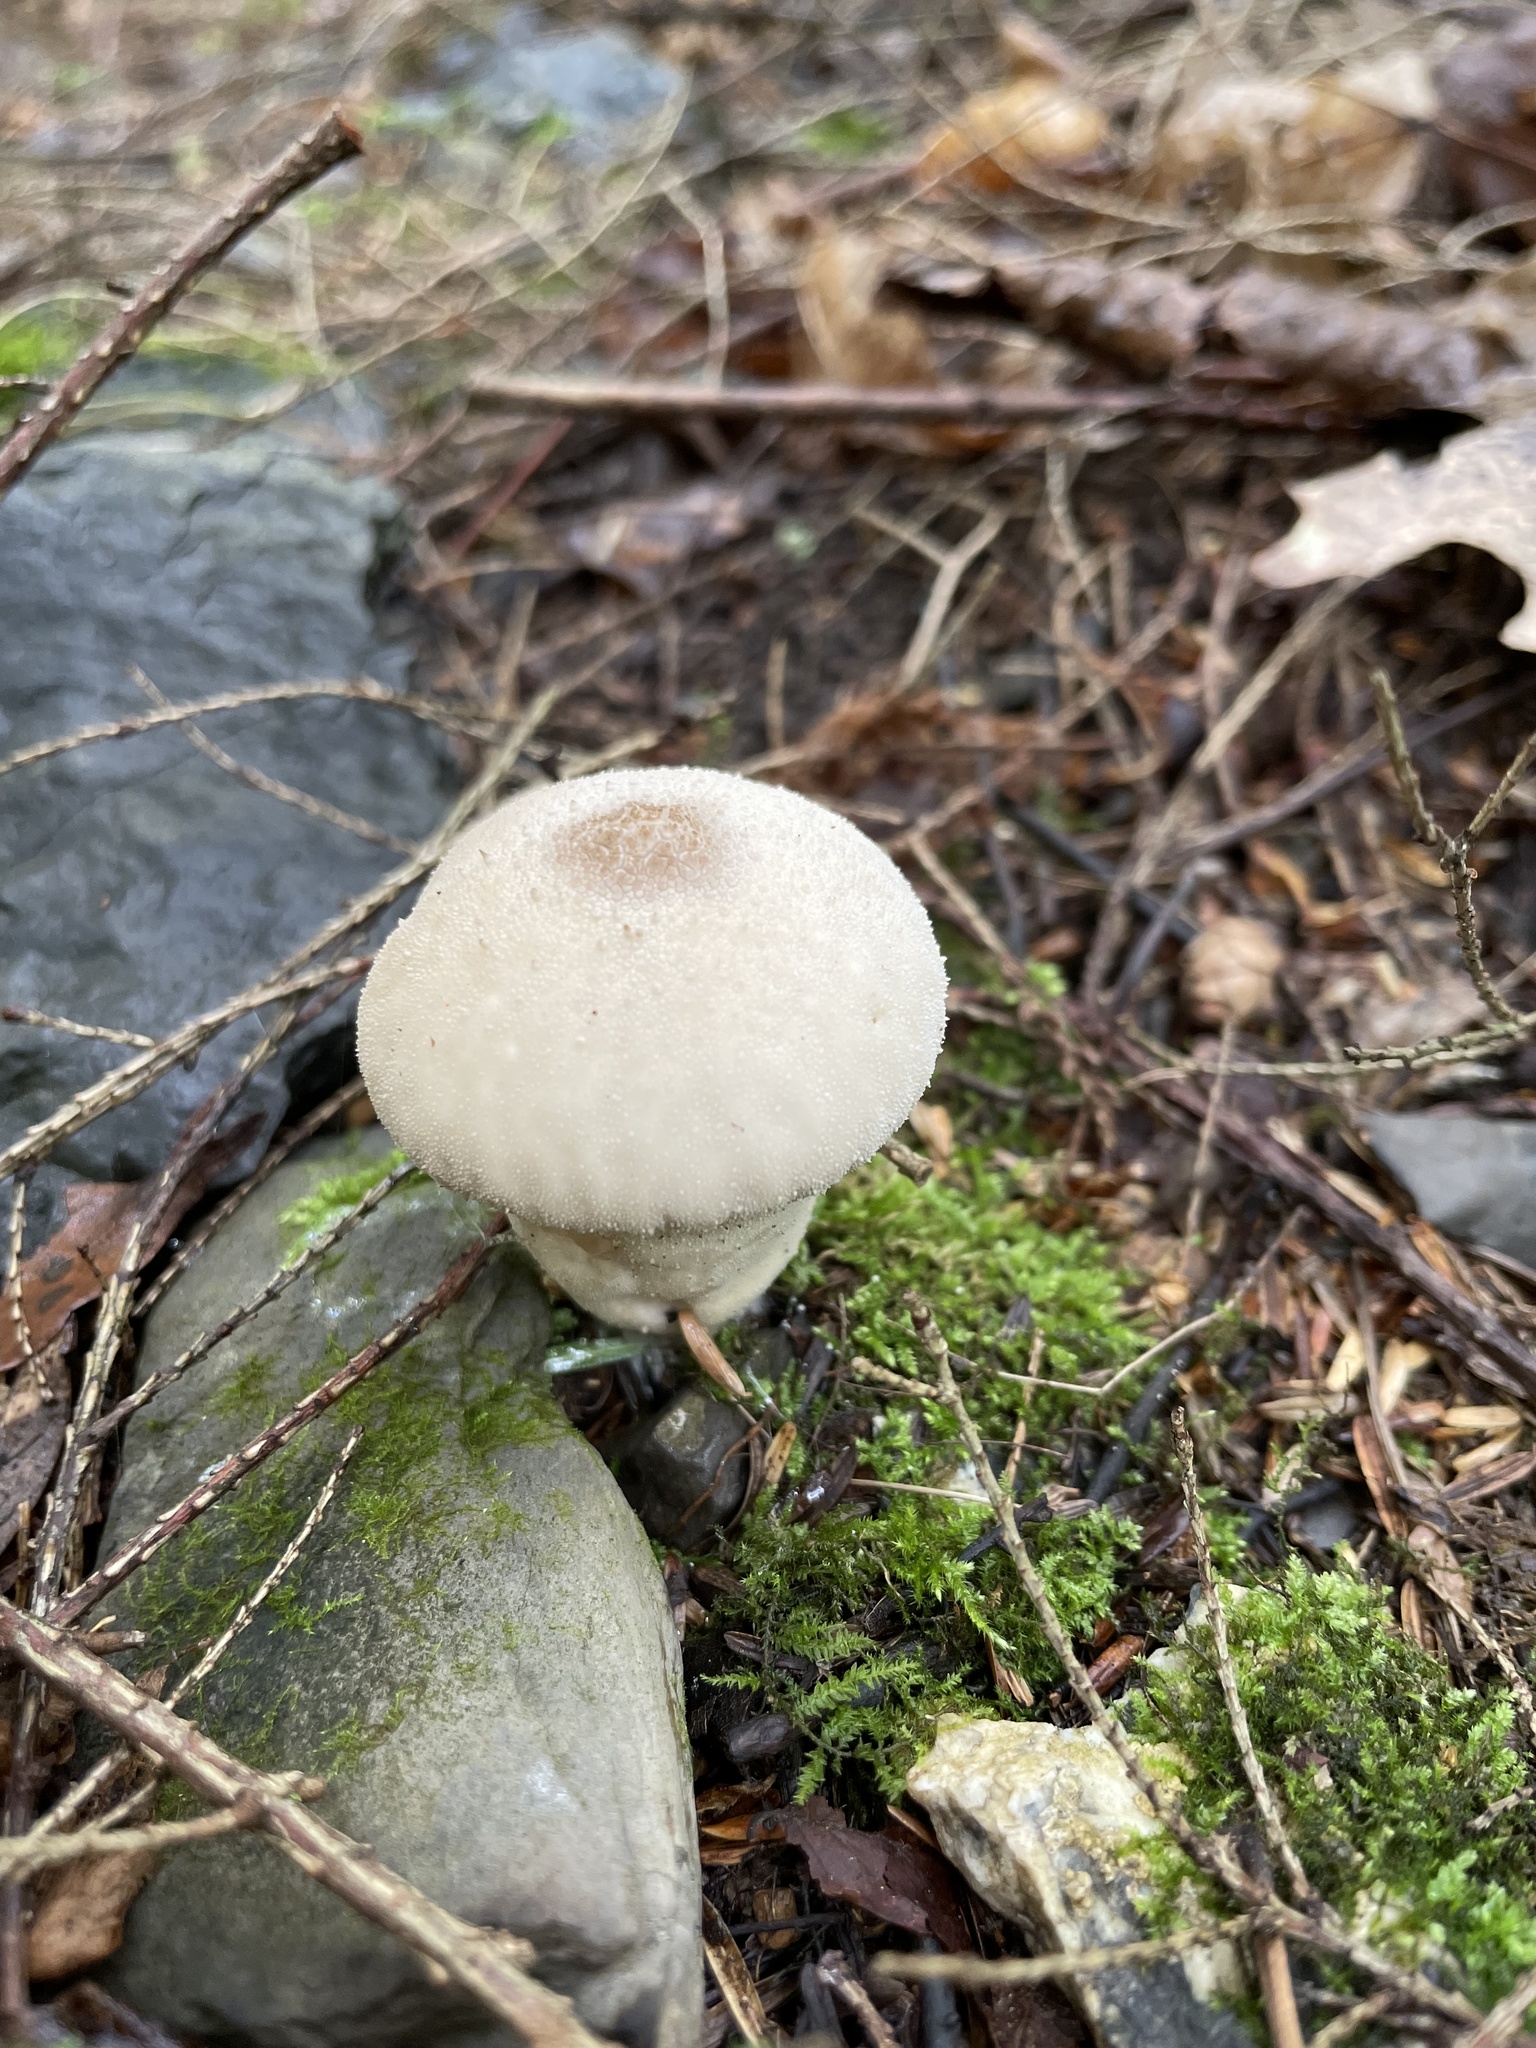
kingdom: Fungi
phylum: Basidiomycota
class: Agaricomycetes
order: Agaricales
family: Lycoperdaceae
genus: Lycoperdon
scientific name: Lycoperdon perlatum
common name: Common puffball
